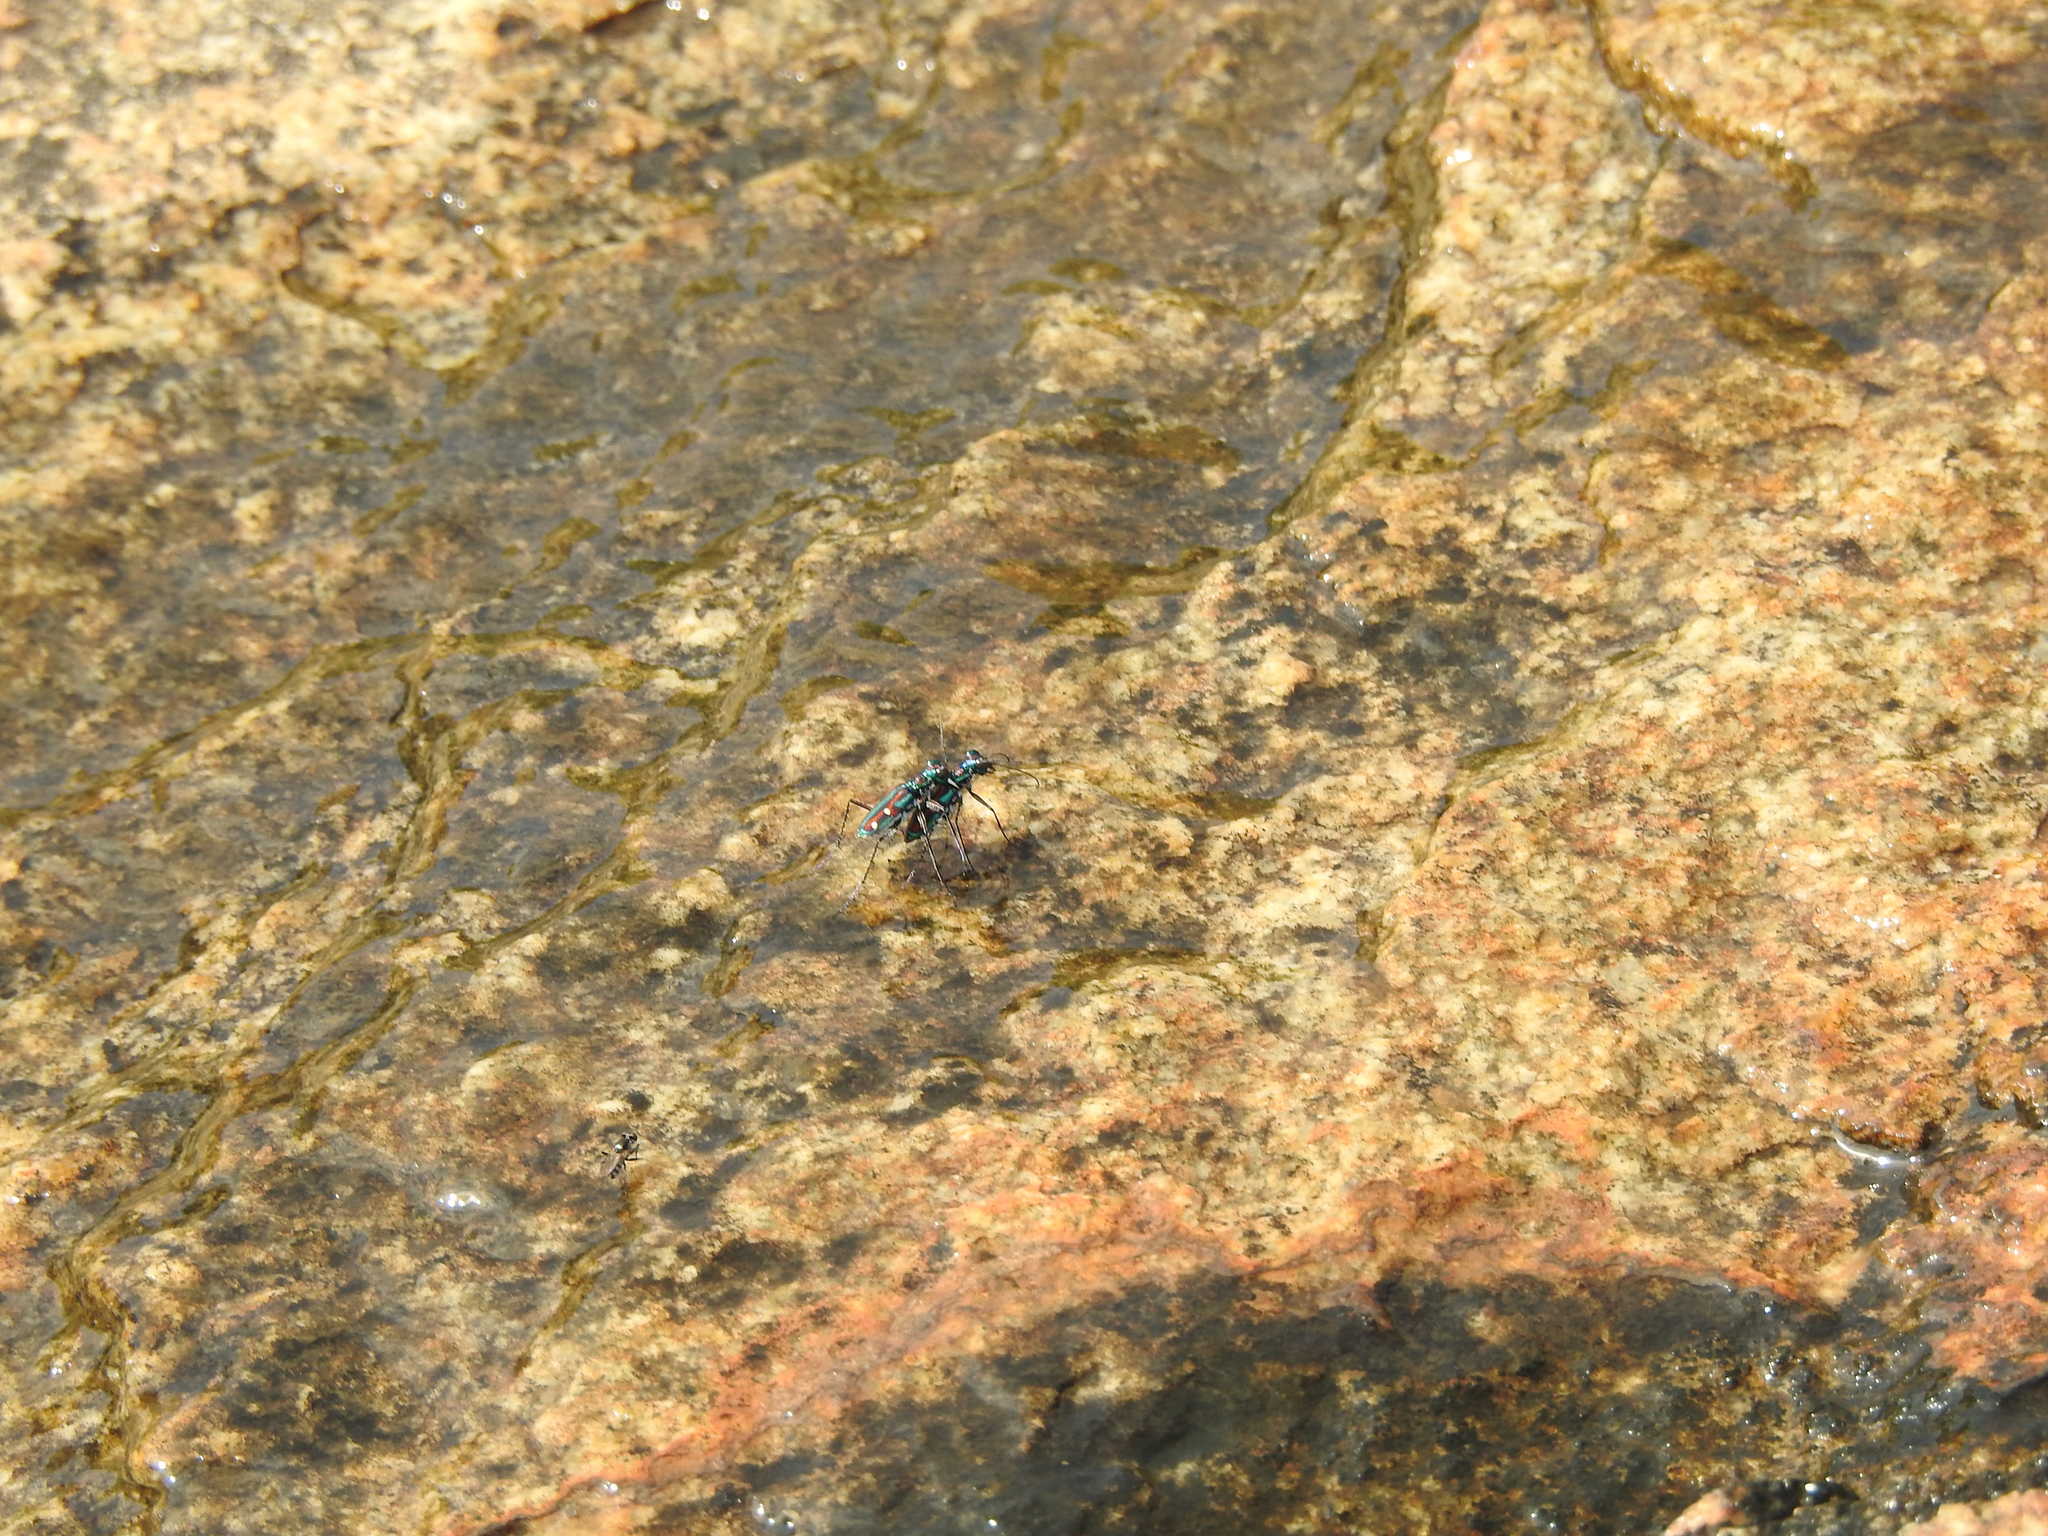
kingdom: Animalia
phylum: Arthropoda
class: Insecta
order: Coleoptera
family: Carabidae
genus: Jansenia
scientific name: Jansenia rugosiceps
